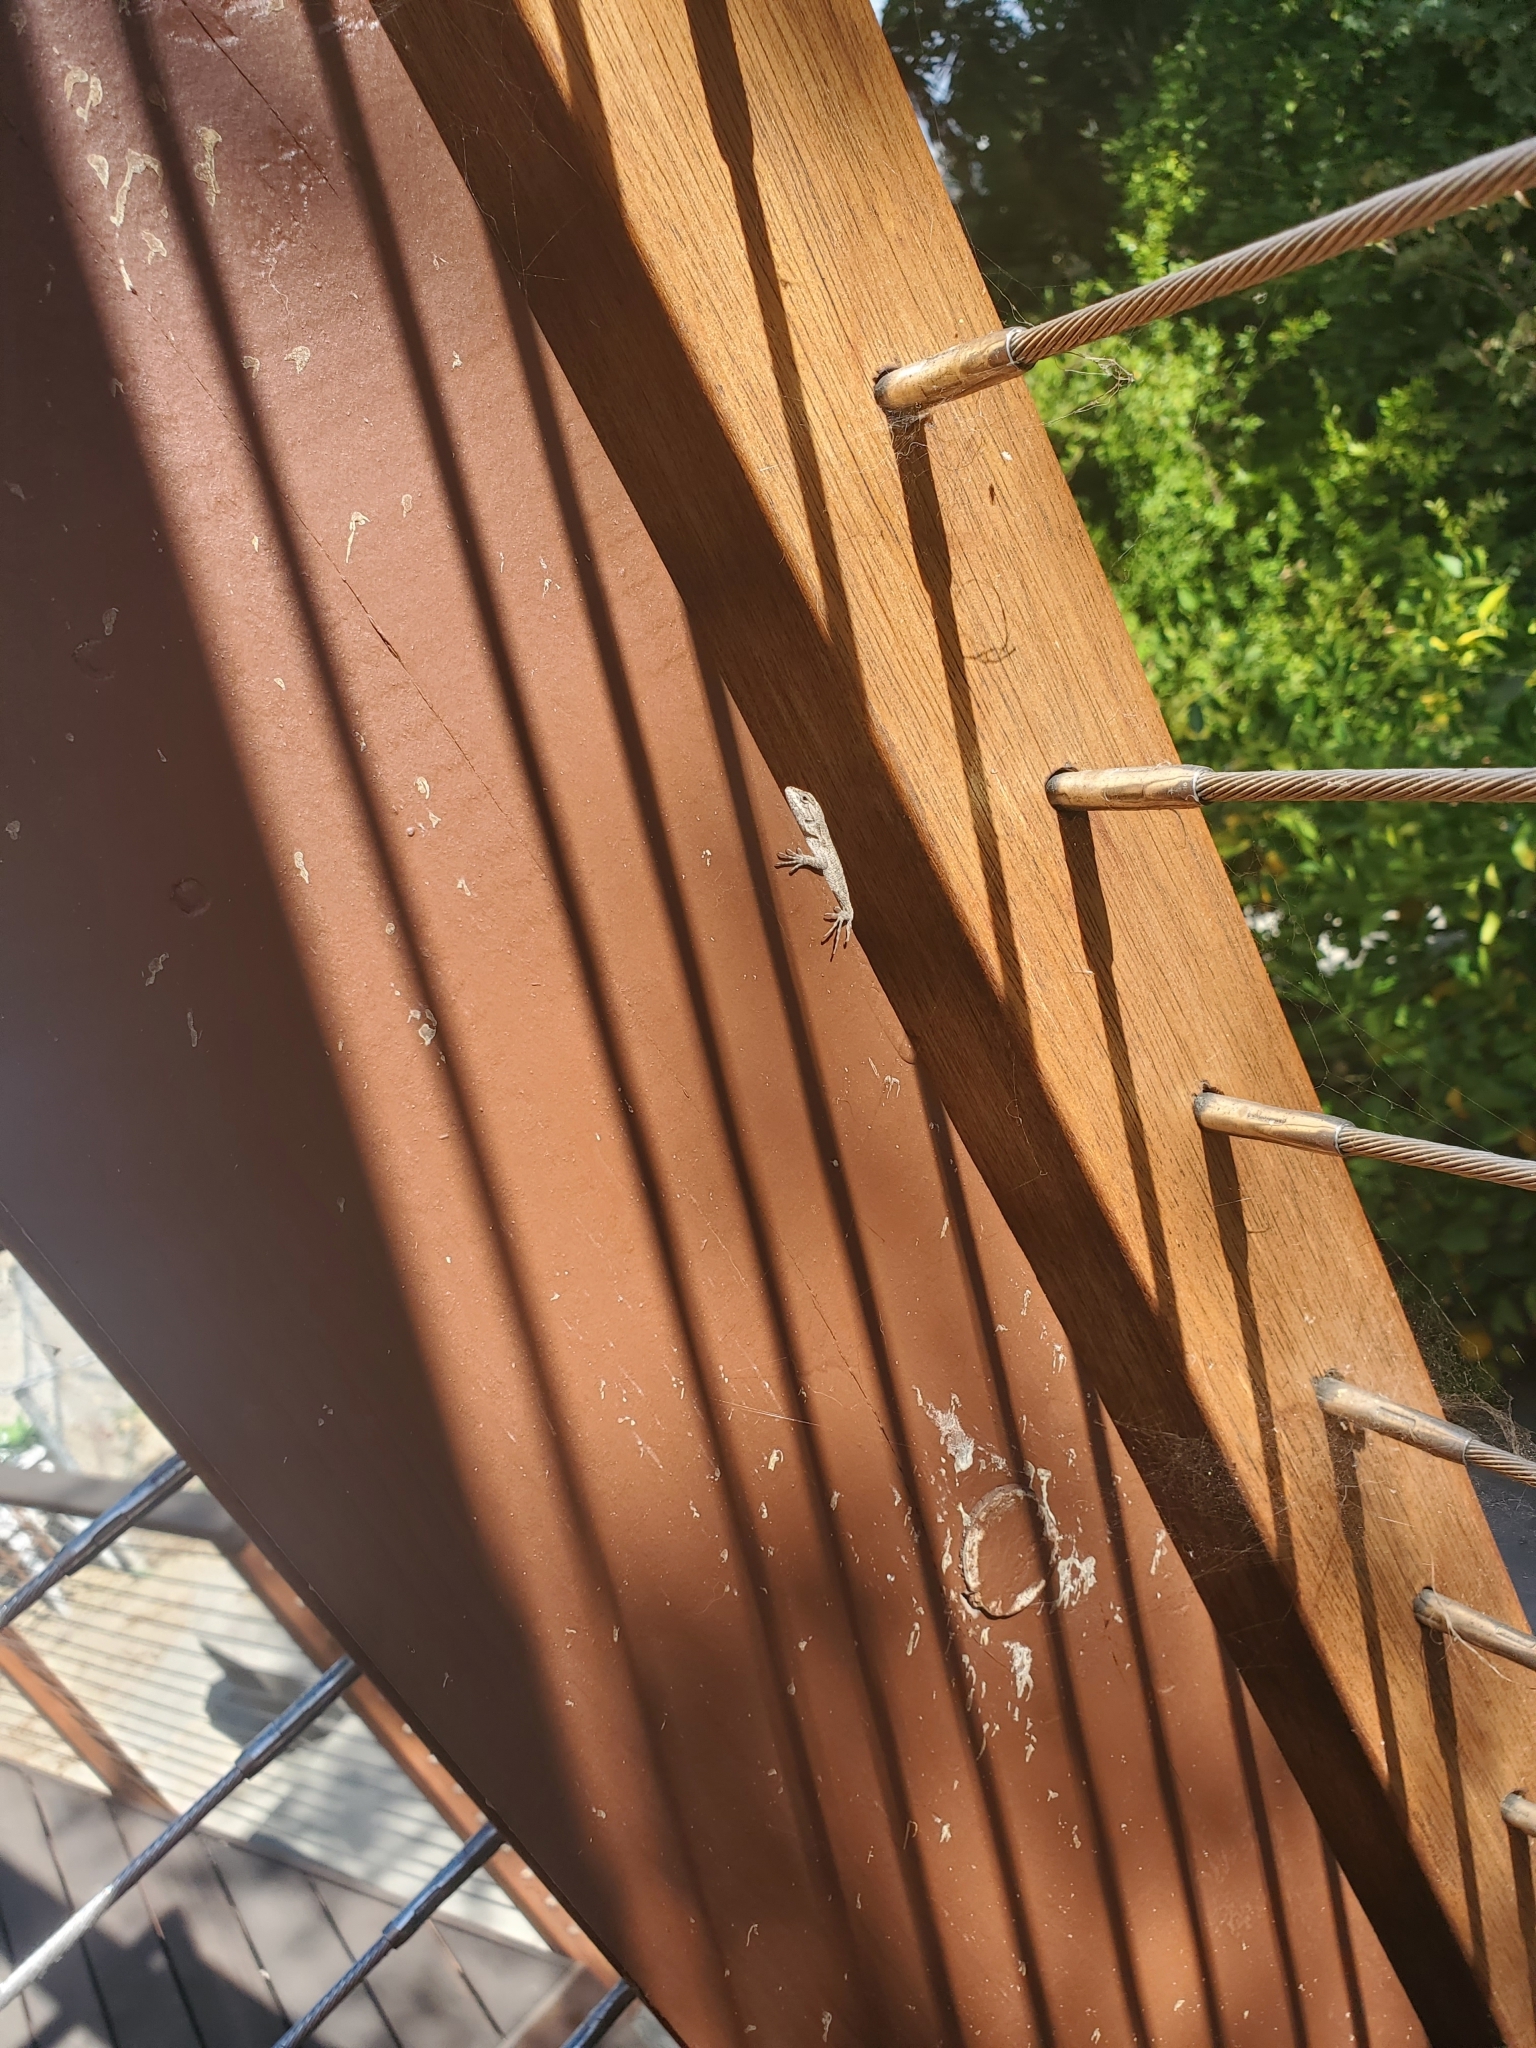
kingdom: Animalia
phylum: Chordata
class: Squamata
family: Phrynosomatidae
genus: Sceloporus
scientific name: Sceloporus occidentalis
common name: Western fence lizard
